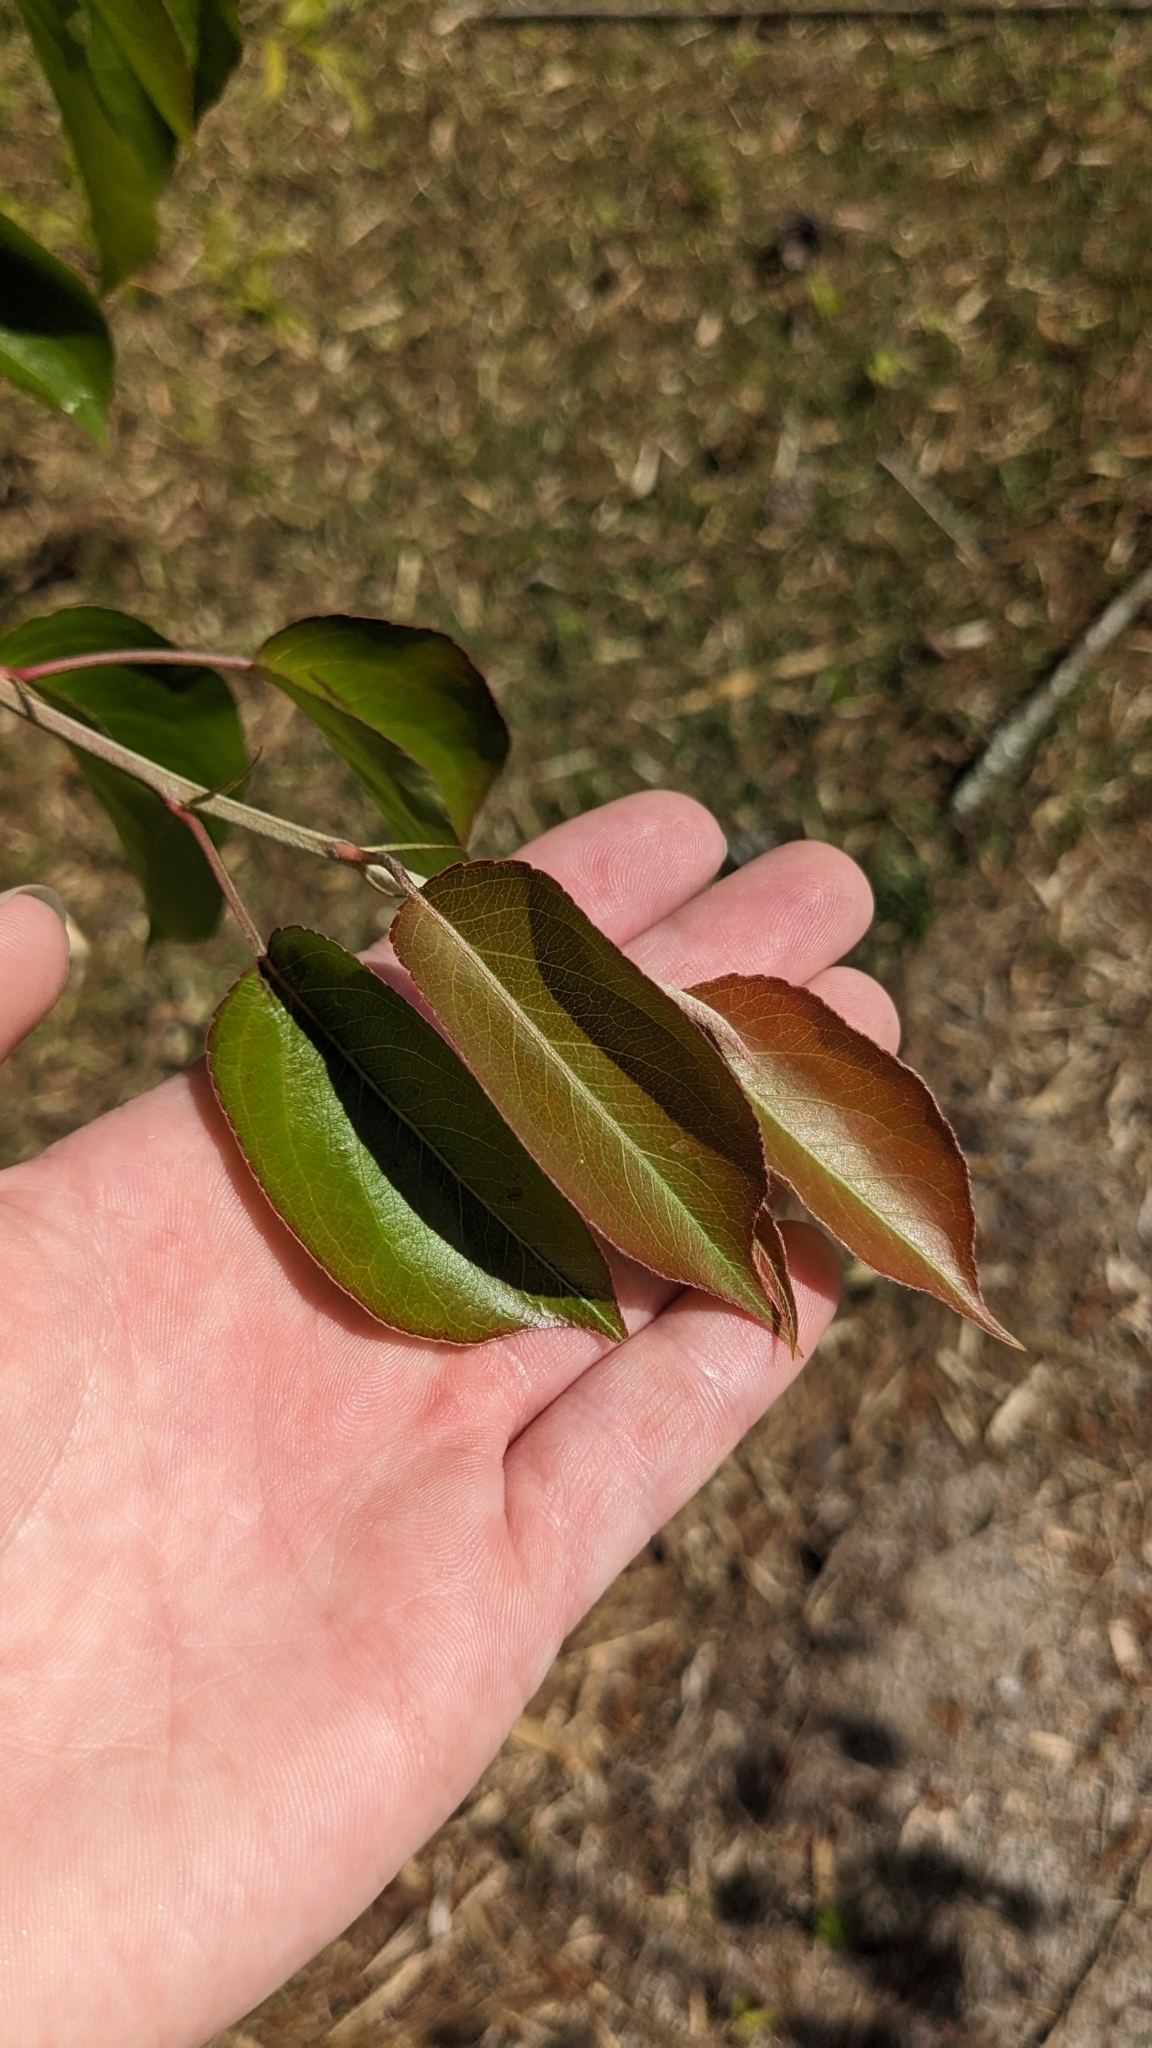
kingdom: Plantae
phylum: Tracheophyta
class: Magnoliopsida
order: Rosales
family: Rosaceae
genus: Pyrus
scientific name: Pyrus calleryana
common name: Callery pear
